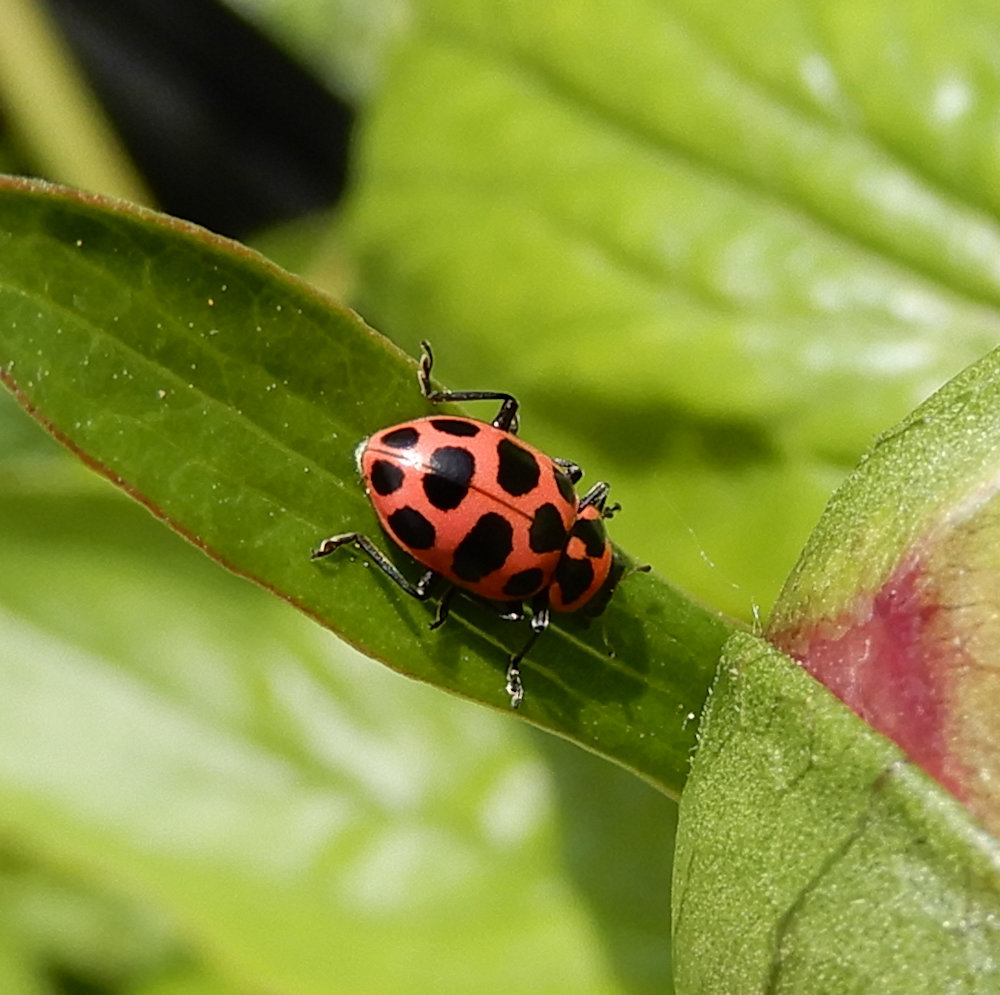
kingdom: Animalia
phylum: Arthropoda
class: Insecta
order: Coleoptera
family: Coccinellidae
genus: Coleomegilla
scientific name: Coleomegilla maculata
